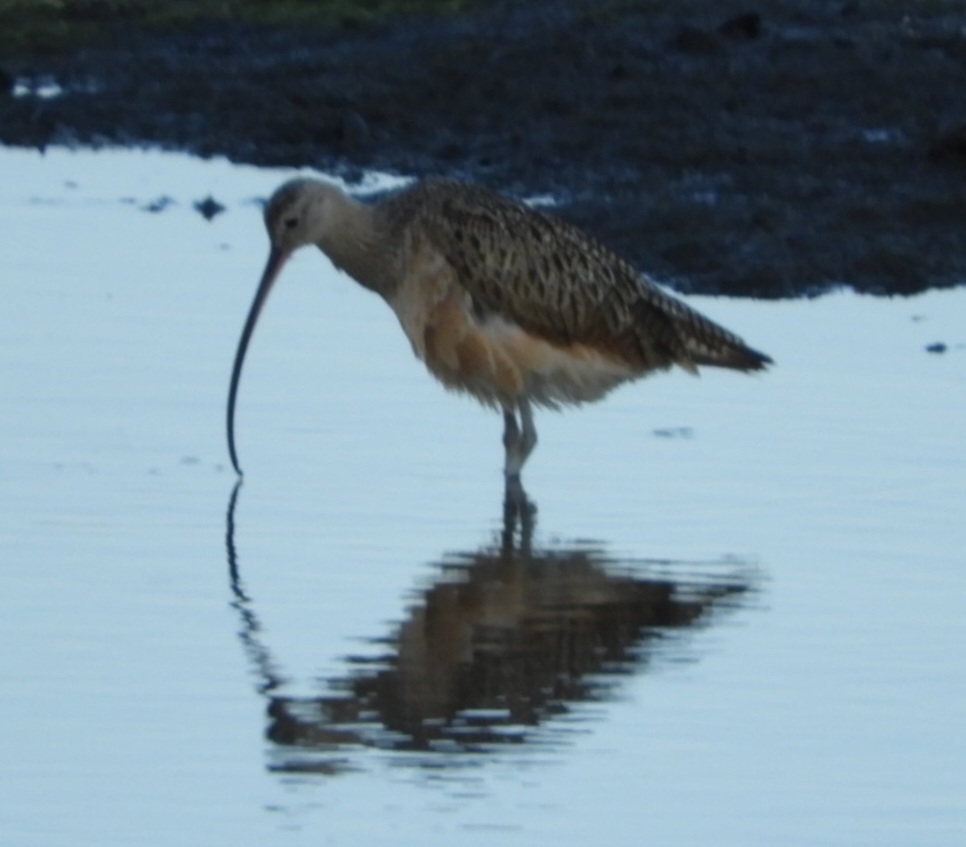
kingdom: Animalia
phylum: Chordata
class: Aves
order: Charadriiformes
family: Scolopacidae
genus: Numenius
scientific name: Numenius americanus
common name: Long-billed curlew
